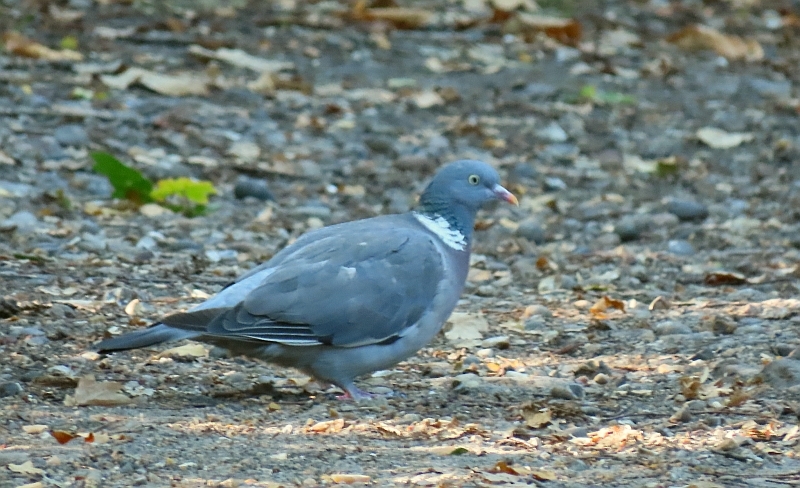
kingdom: Animalia
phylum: Chordata
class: Aves
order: Columbiformes
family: Columbidae
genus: Columba
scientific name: Columba palumbus
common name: Common wood pigeon
